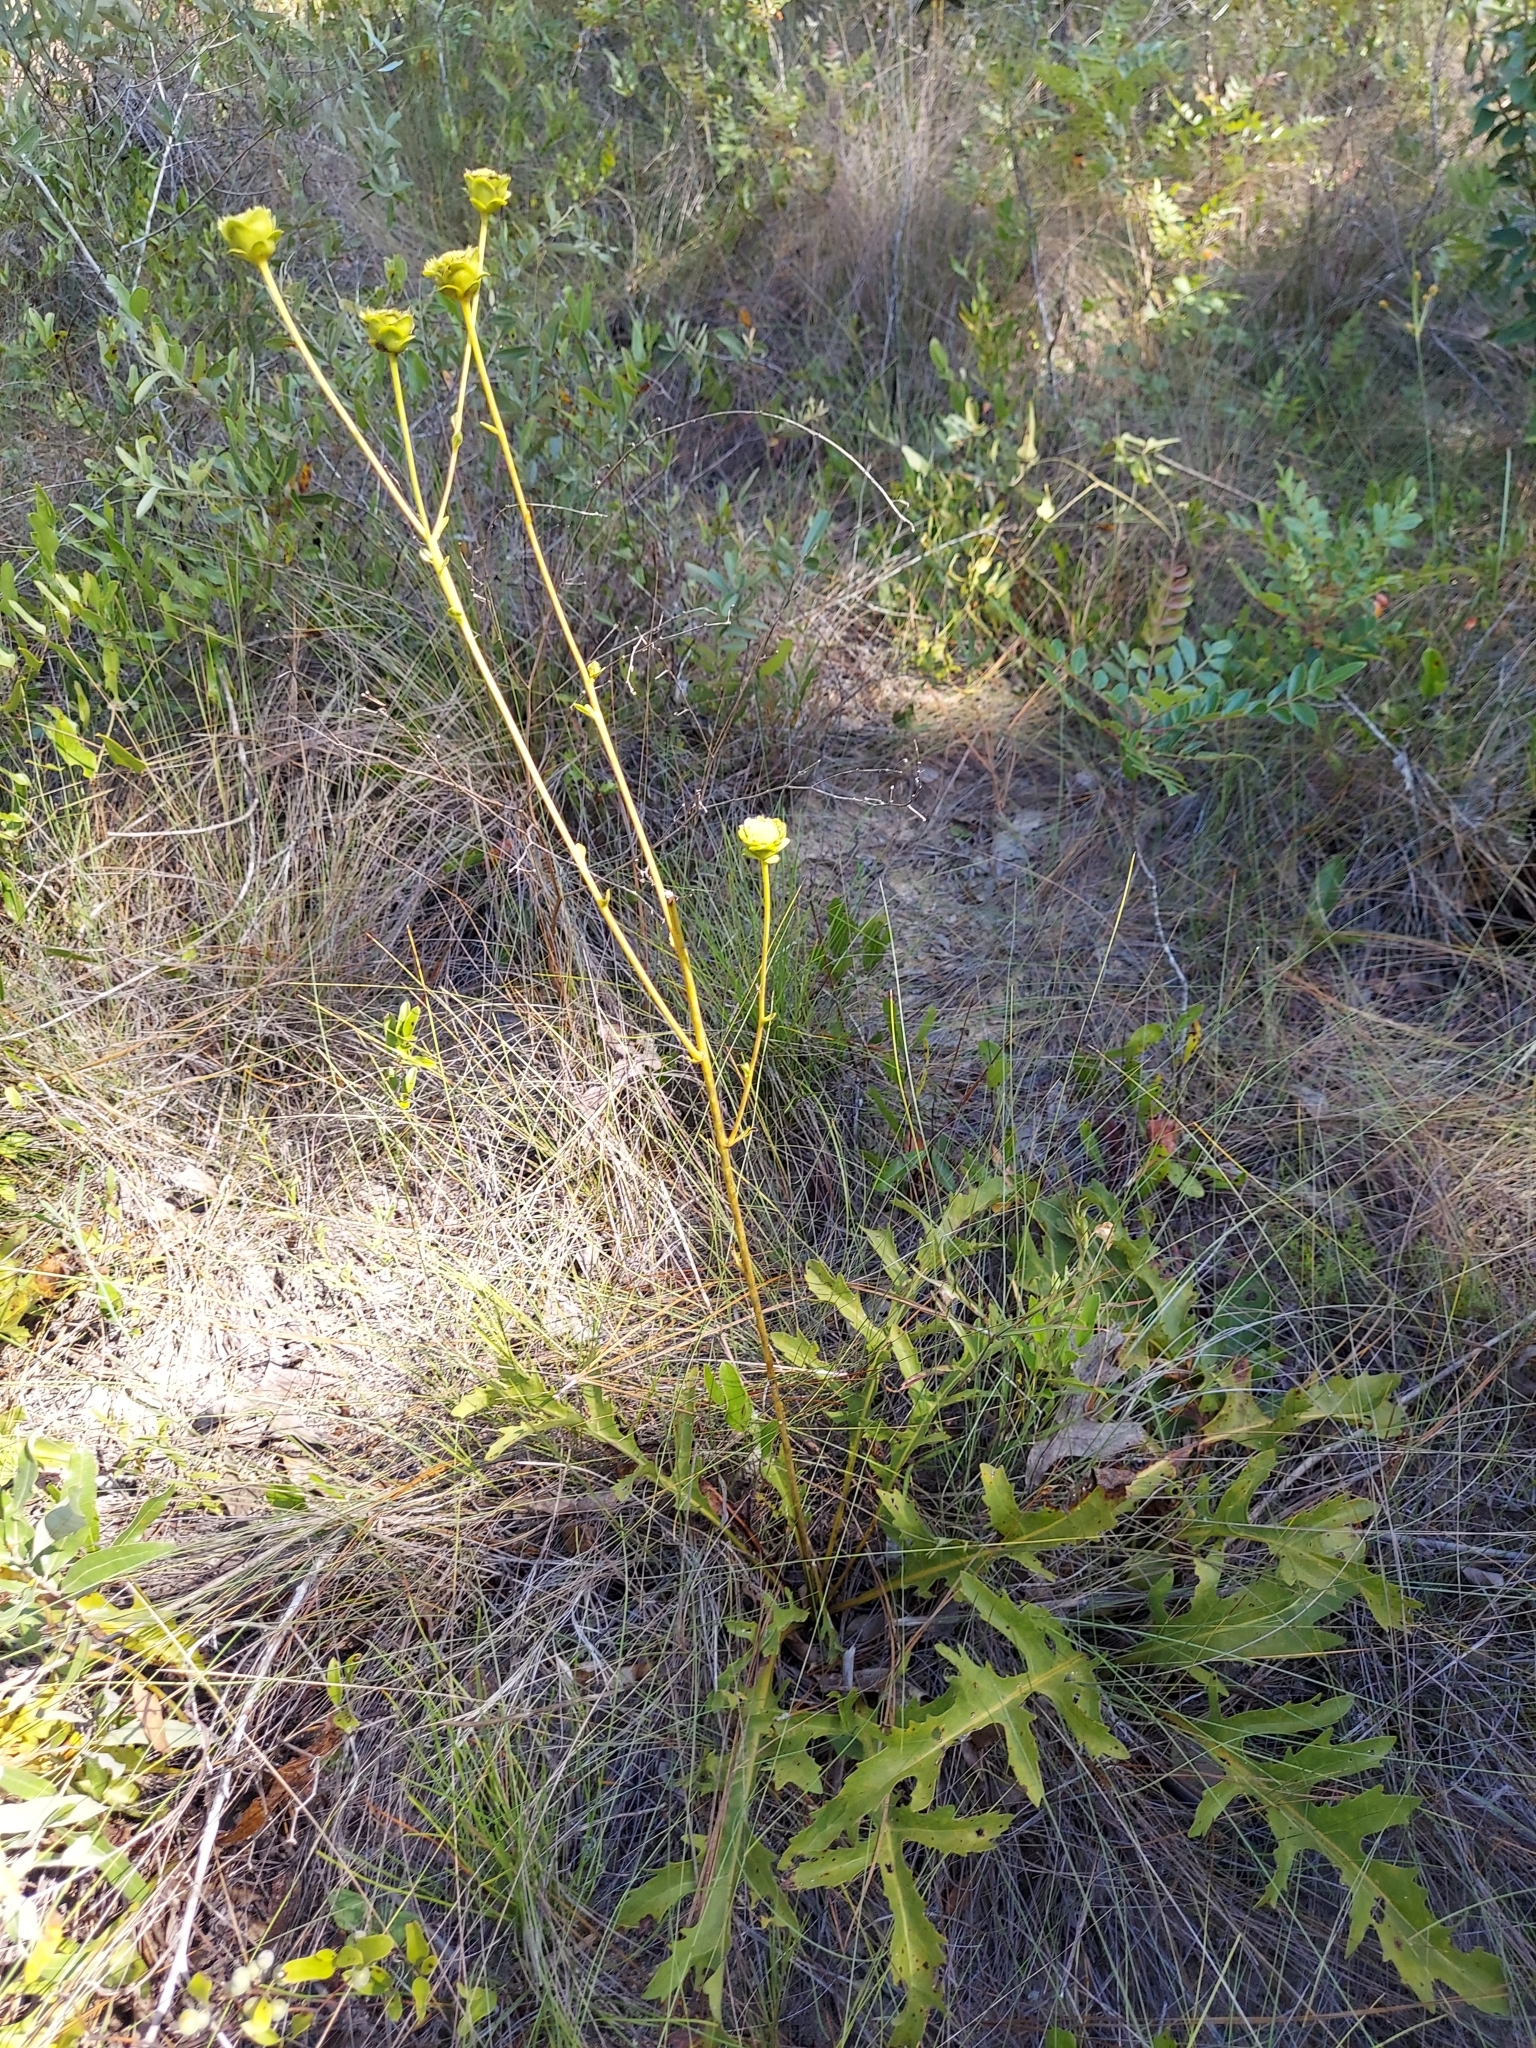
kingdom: Plantae
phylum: Tracheophyta
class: Magnoliopsida
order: Asterales
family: Asteraceae
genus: Silphium
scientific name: Silphium compositum
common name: Lesser basal-leaf rosinweed
